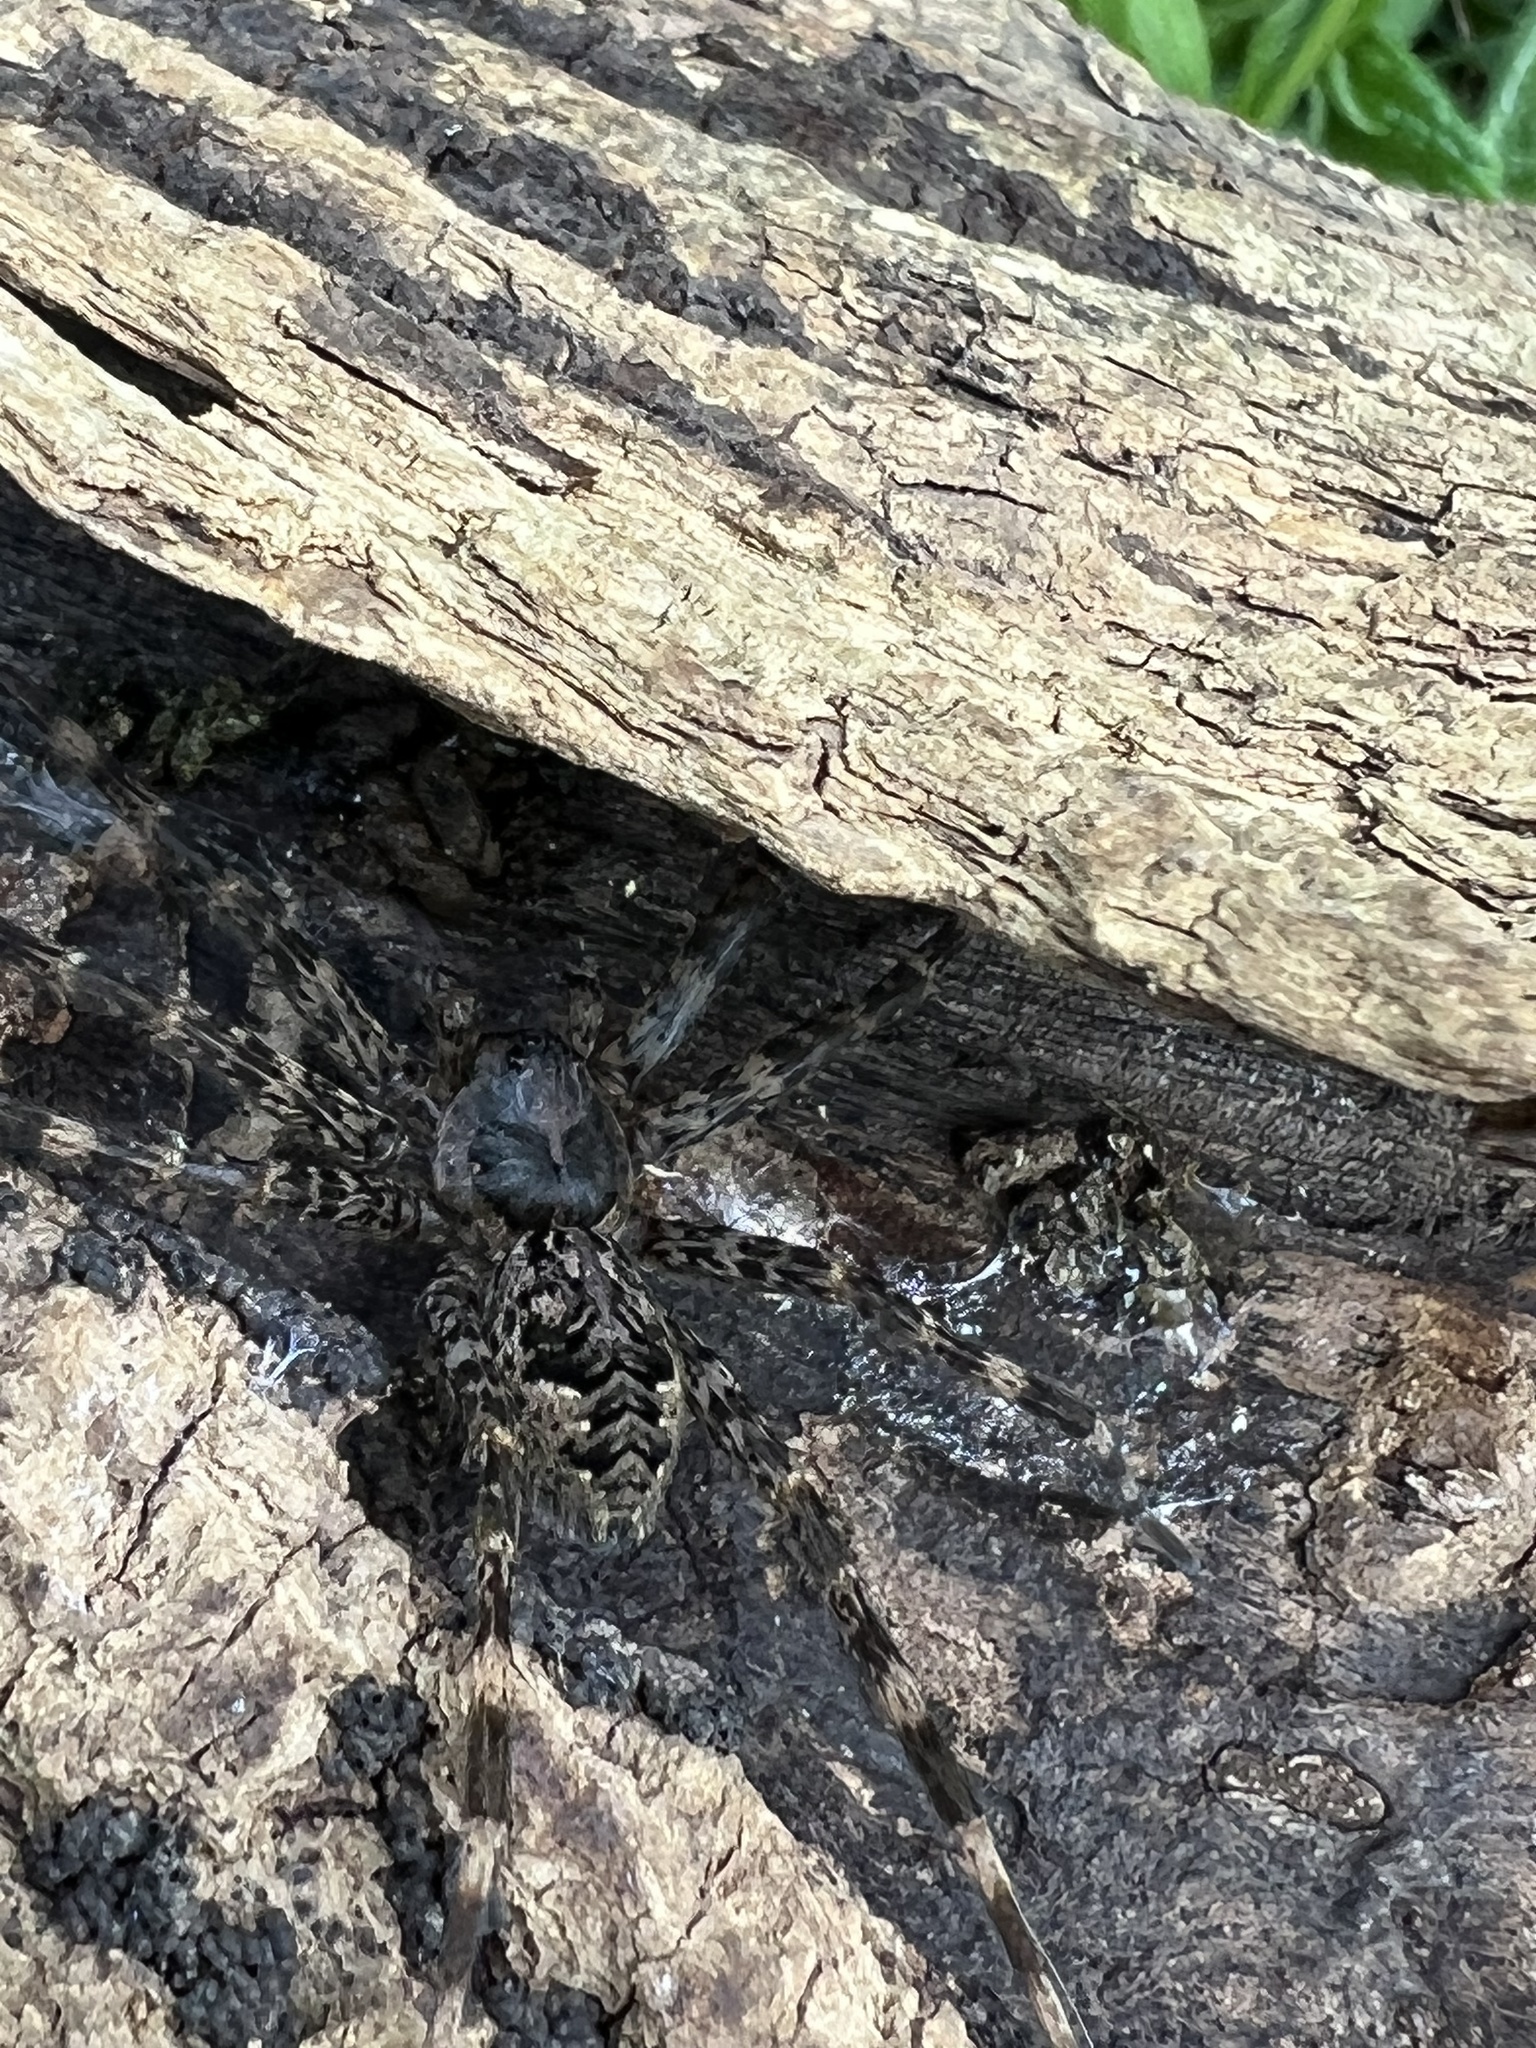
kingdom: Animalia
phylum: Arthropoda
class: Arachnida
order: Araneae
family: Pisauridae
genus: Dolomedes
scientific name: Dolomedes tenebrosus
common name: Dark fishing spider
